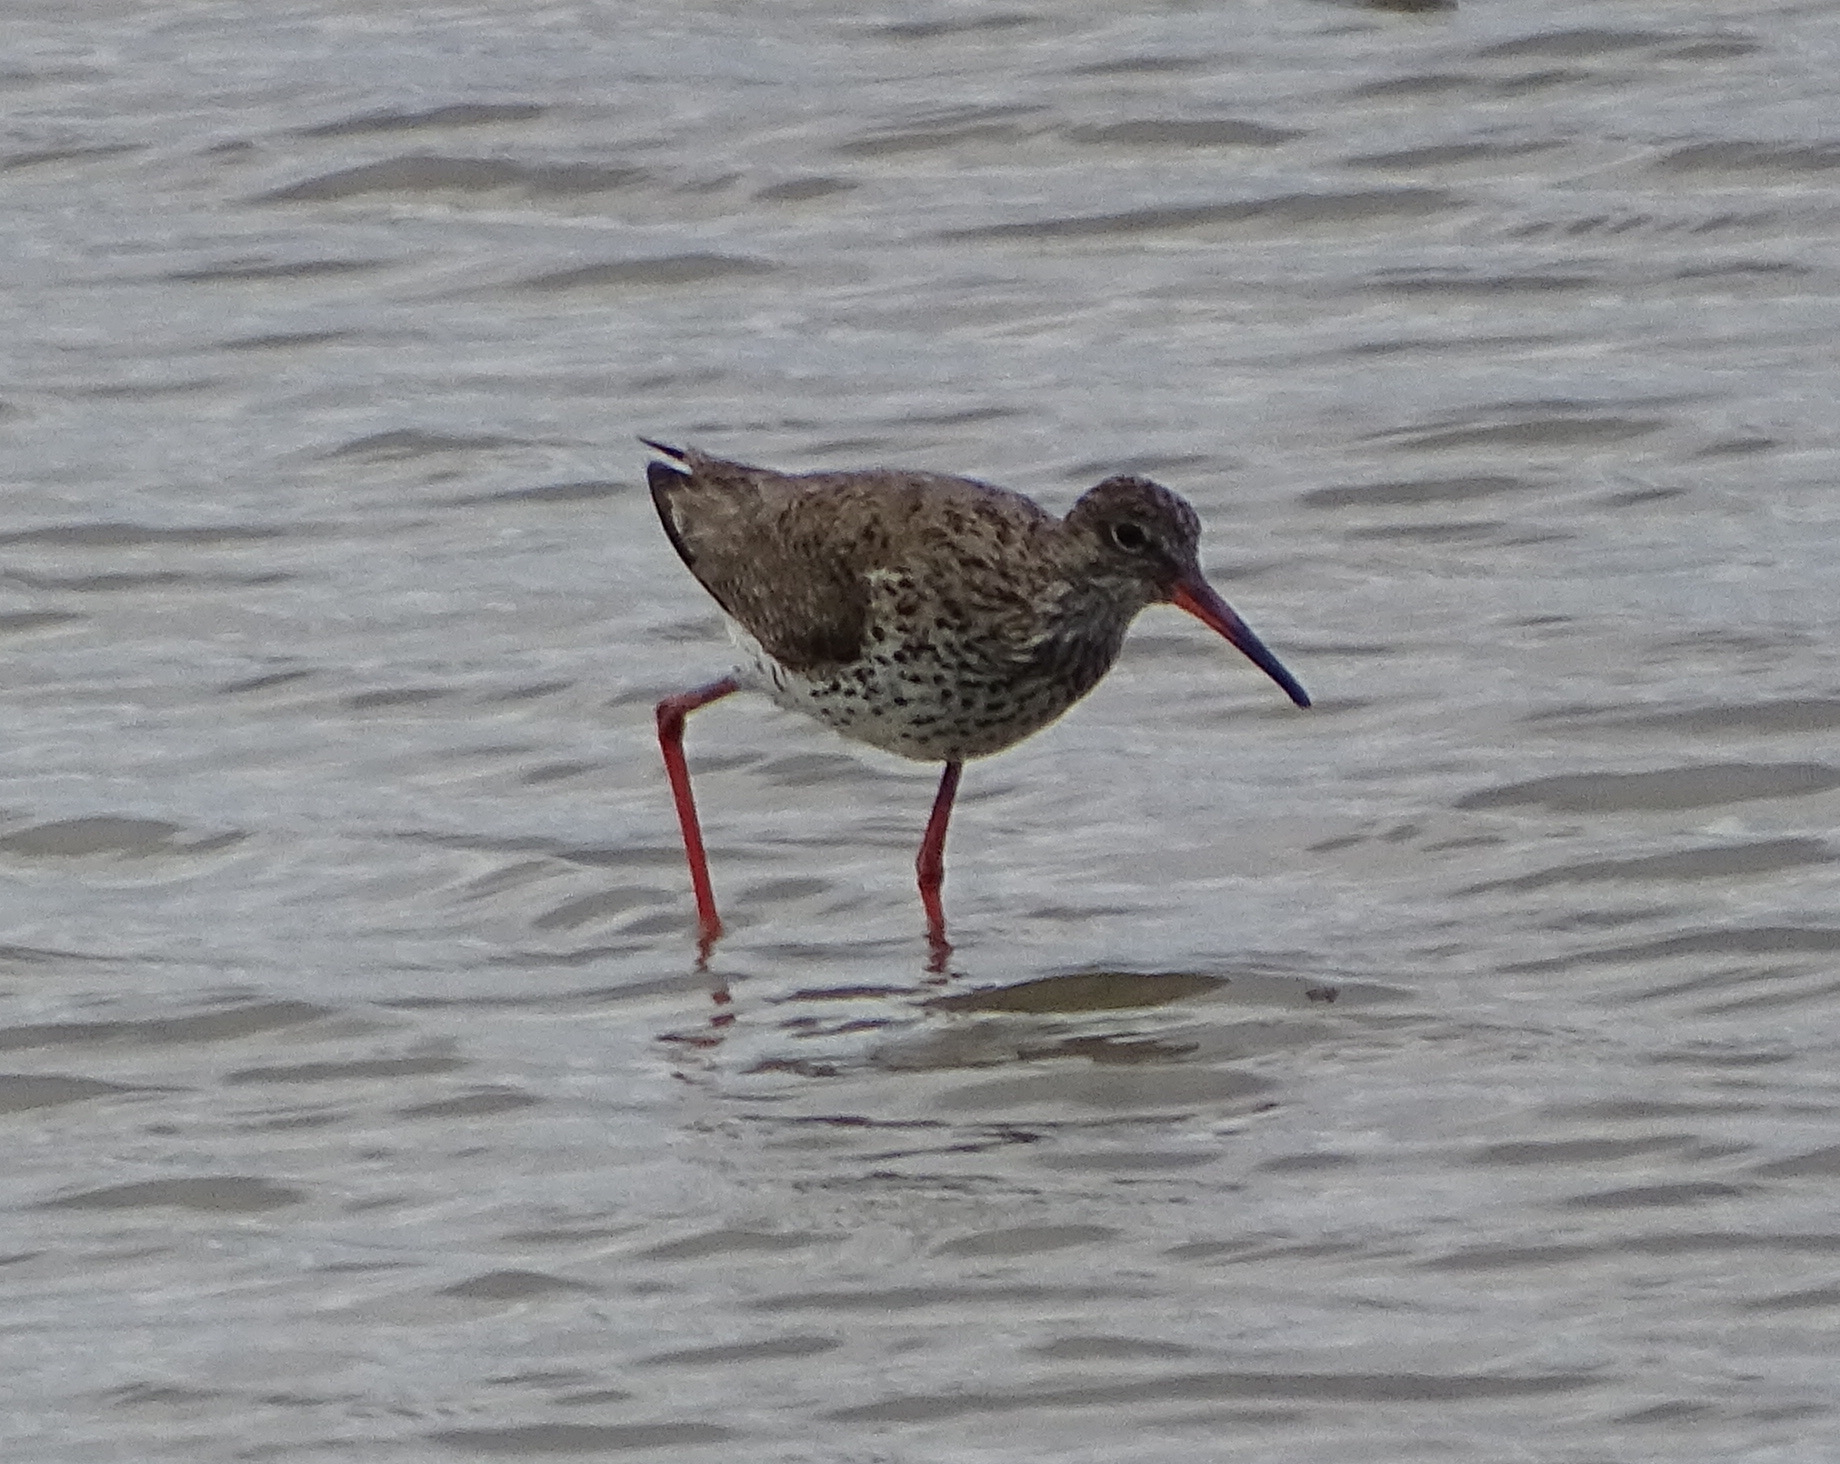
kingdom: Animalia
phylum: Chordata
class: Aves
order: Charadriiformes
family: Scolopacidae
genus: Tringa
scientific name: Tringa totanus
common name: Common redshank
